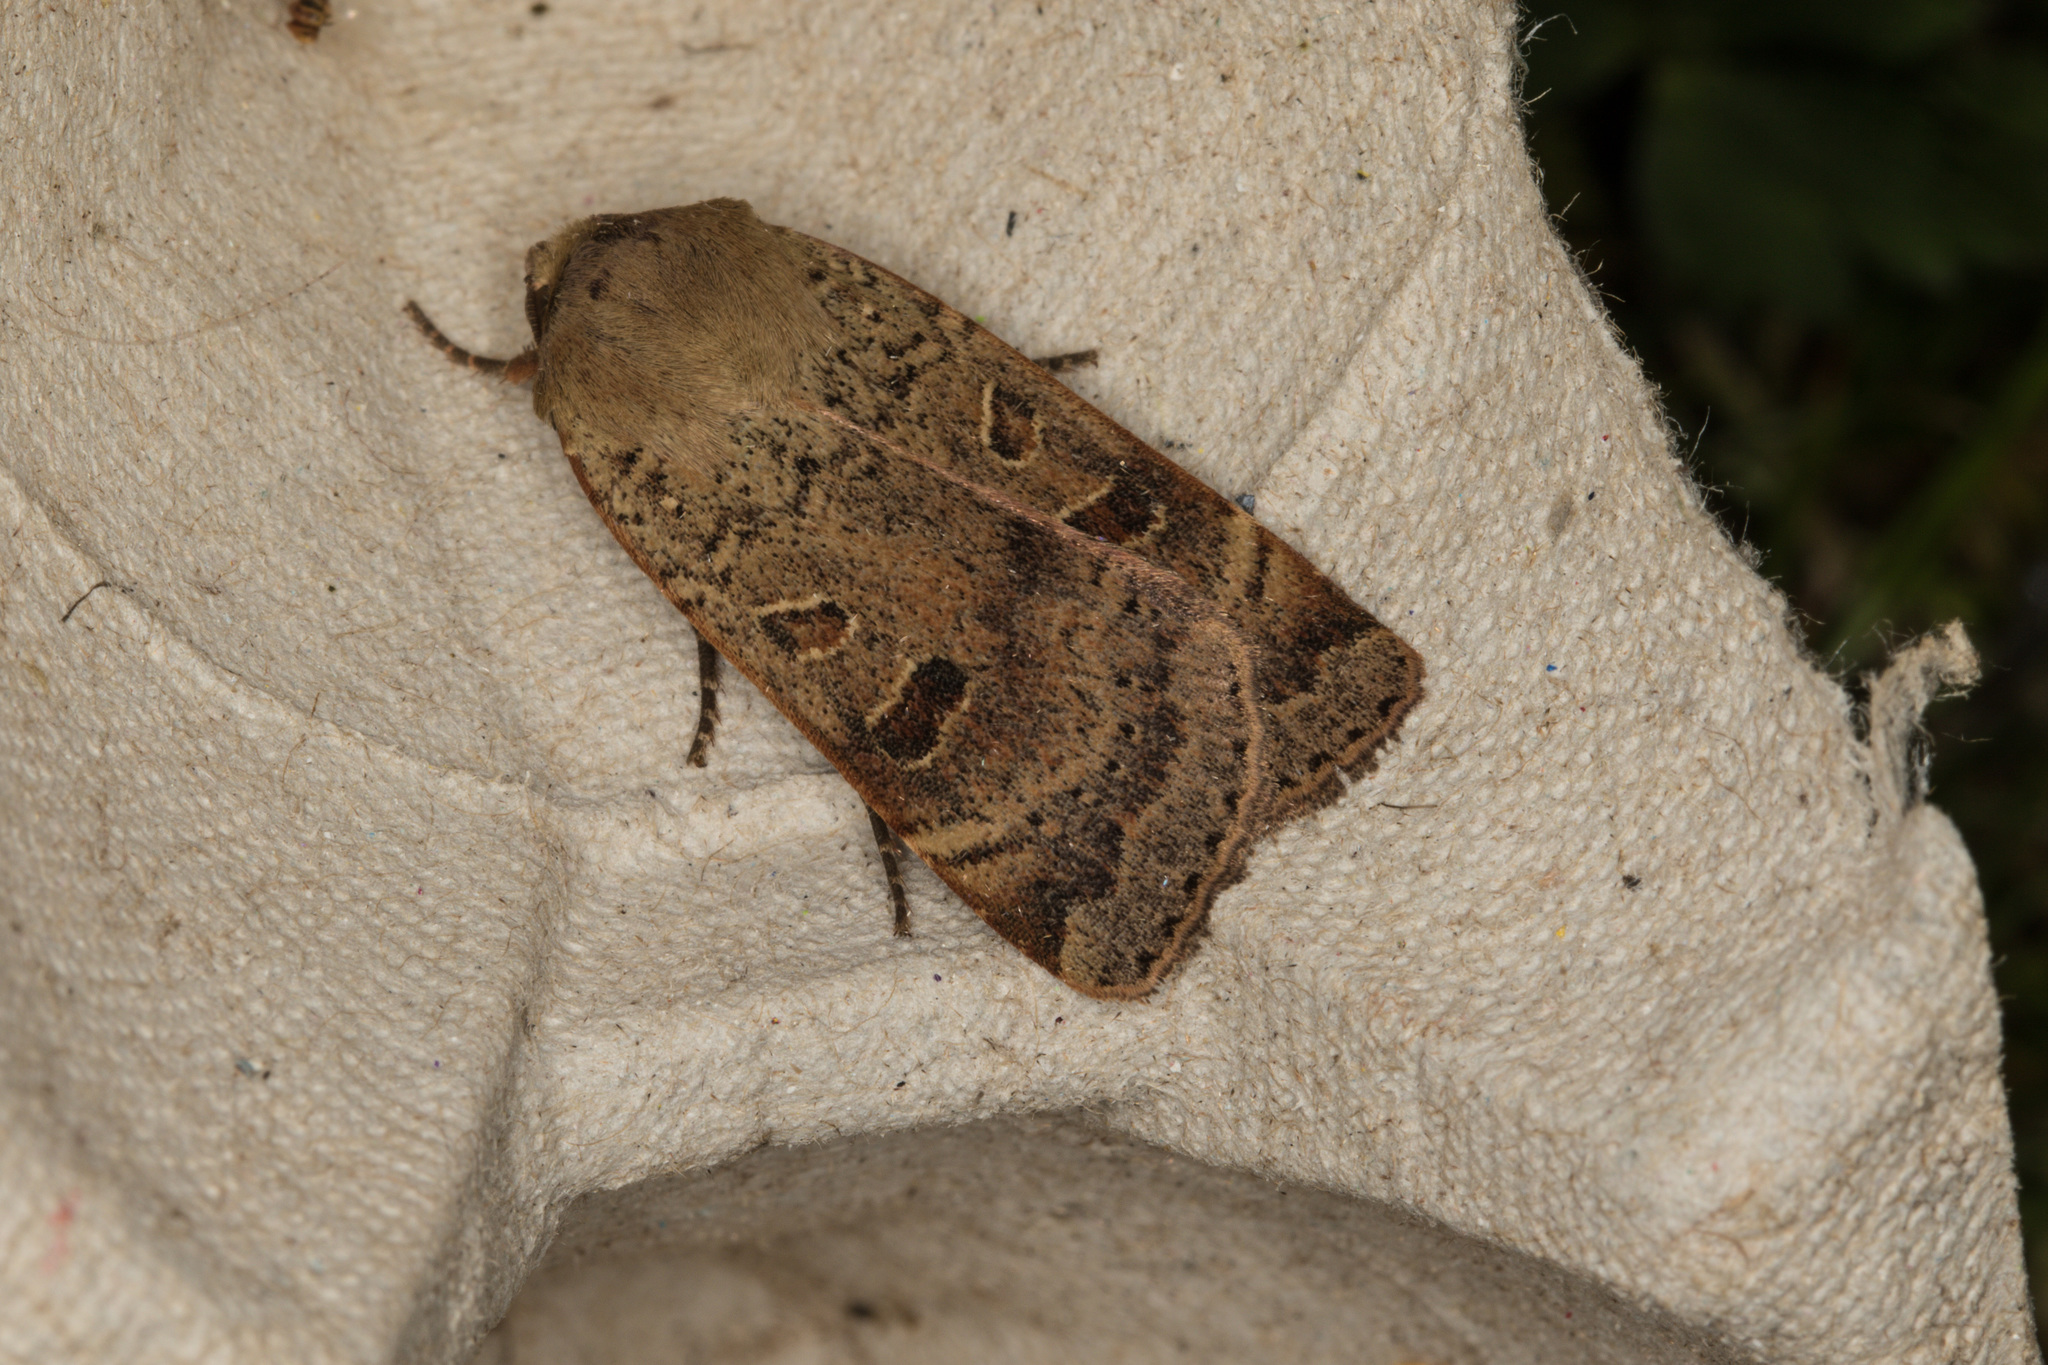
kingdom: Animalia
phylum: Arthropoda
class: Insecta
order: Lepidoptera
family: Noctuidae
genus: Noctua
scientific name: Noctua comes
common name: Lesser yellow underwing
